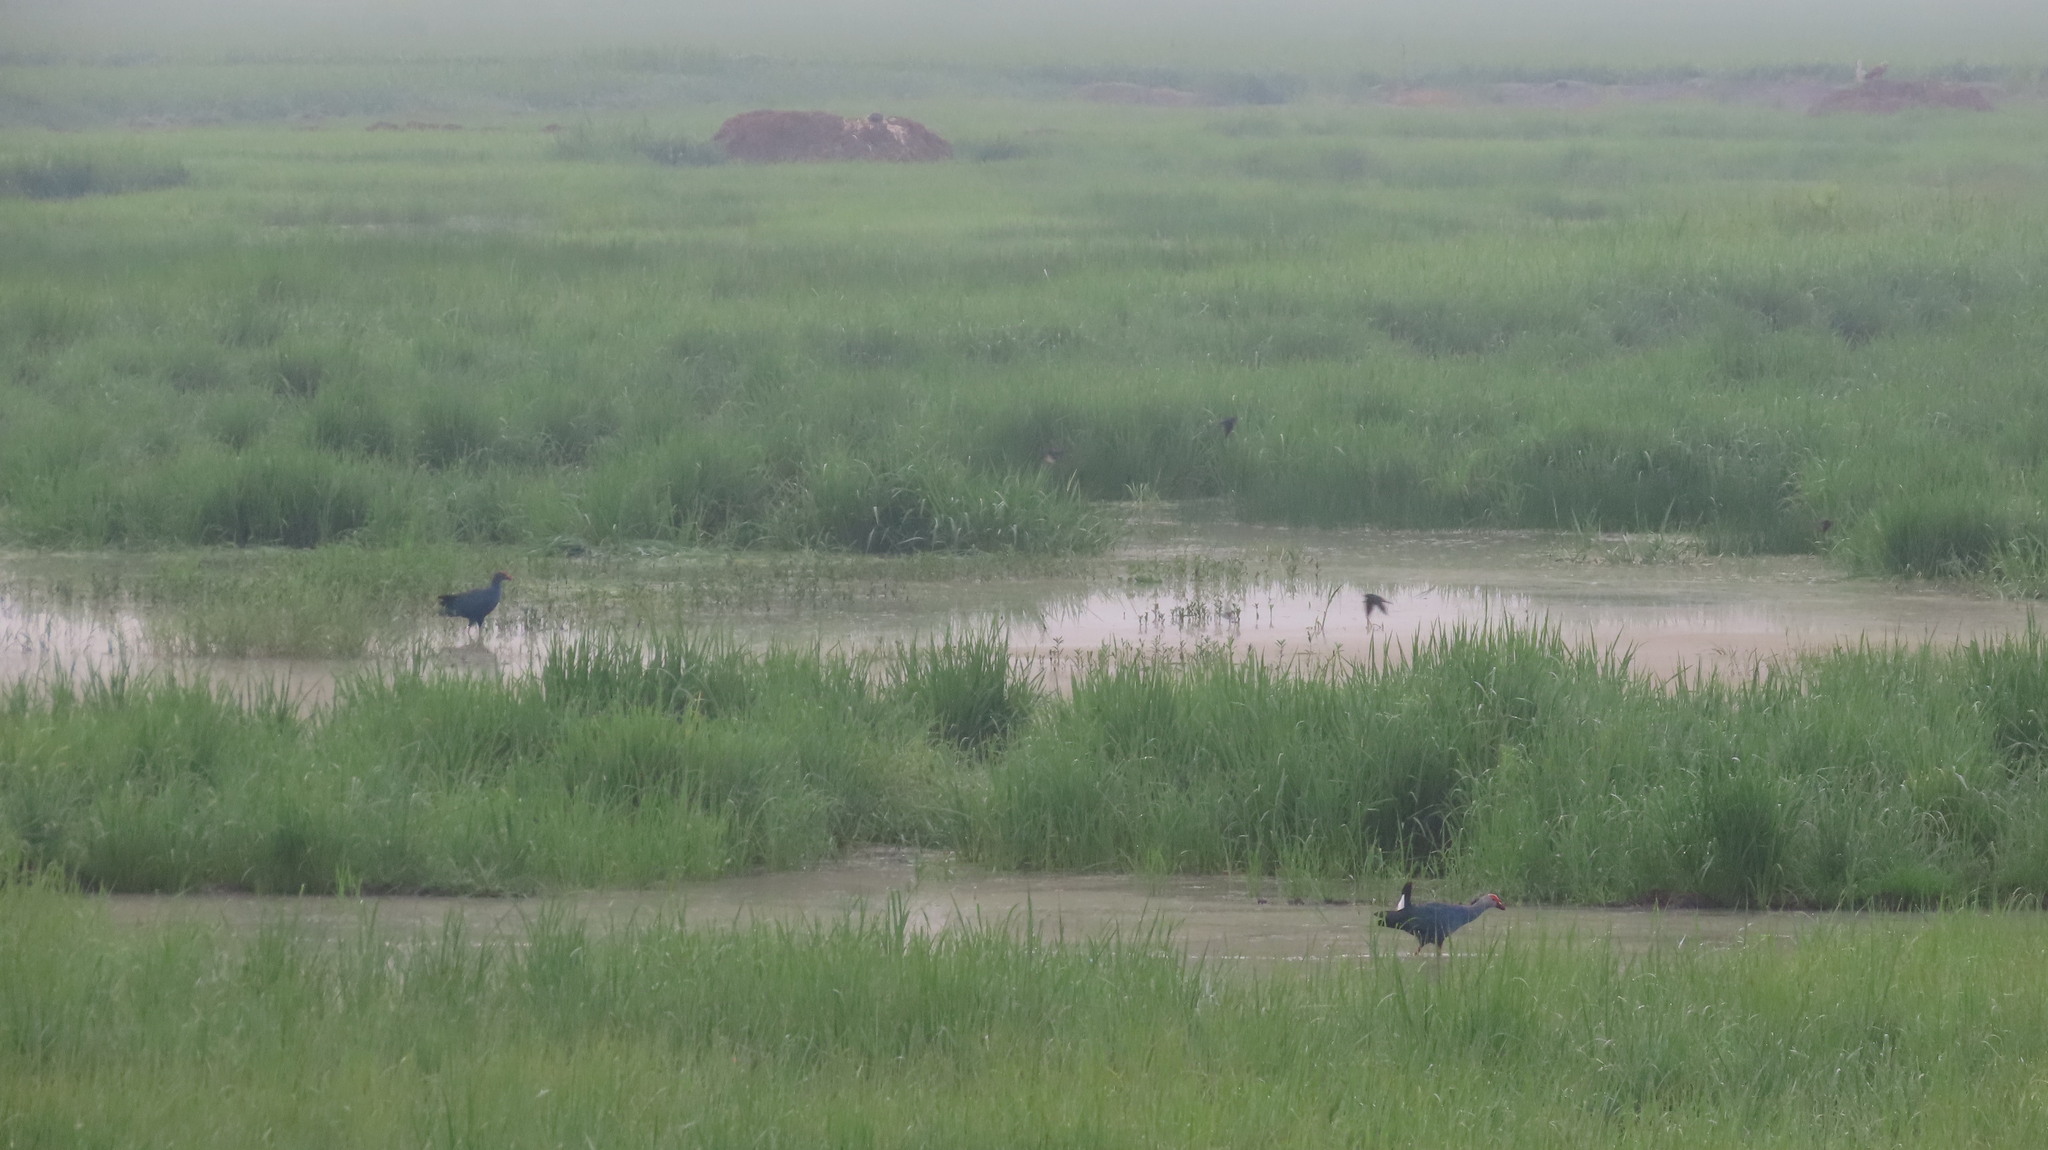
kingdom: Animalia
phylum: Chordata
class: Aves
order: Gruiformes
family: Rallidae
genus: Porphyrio
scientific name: Porphyrio porphyrio
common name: Purple swamphen
